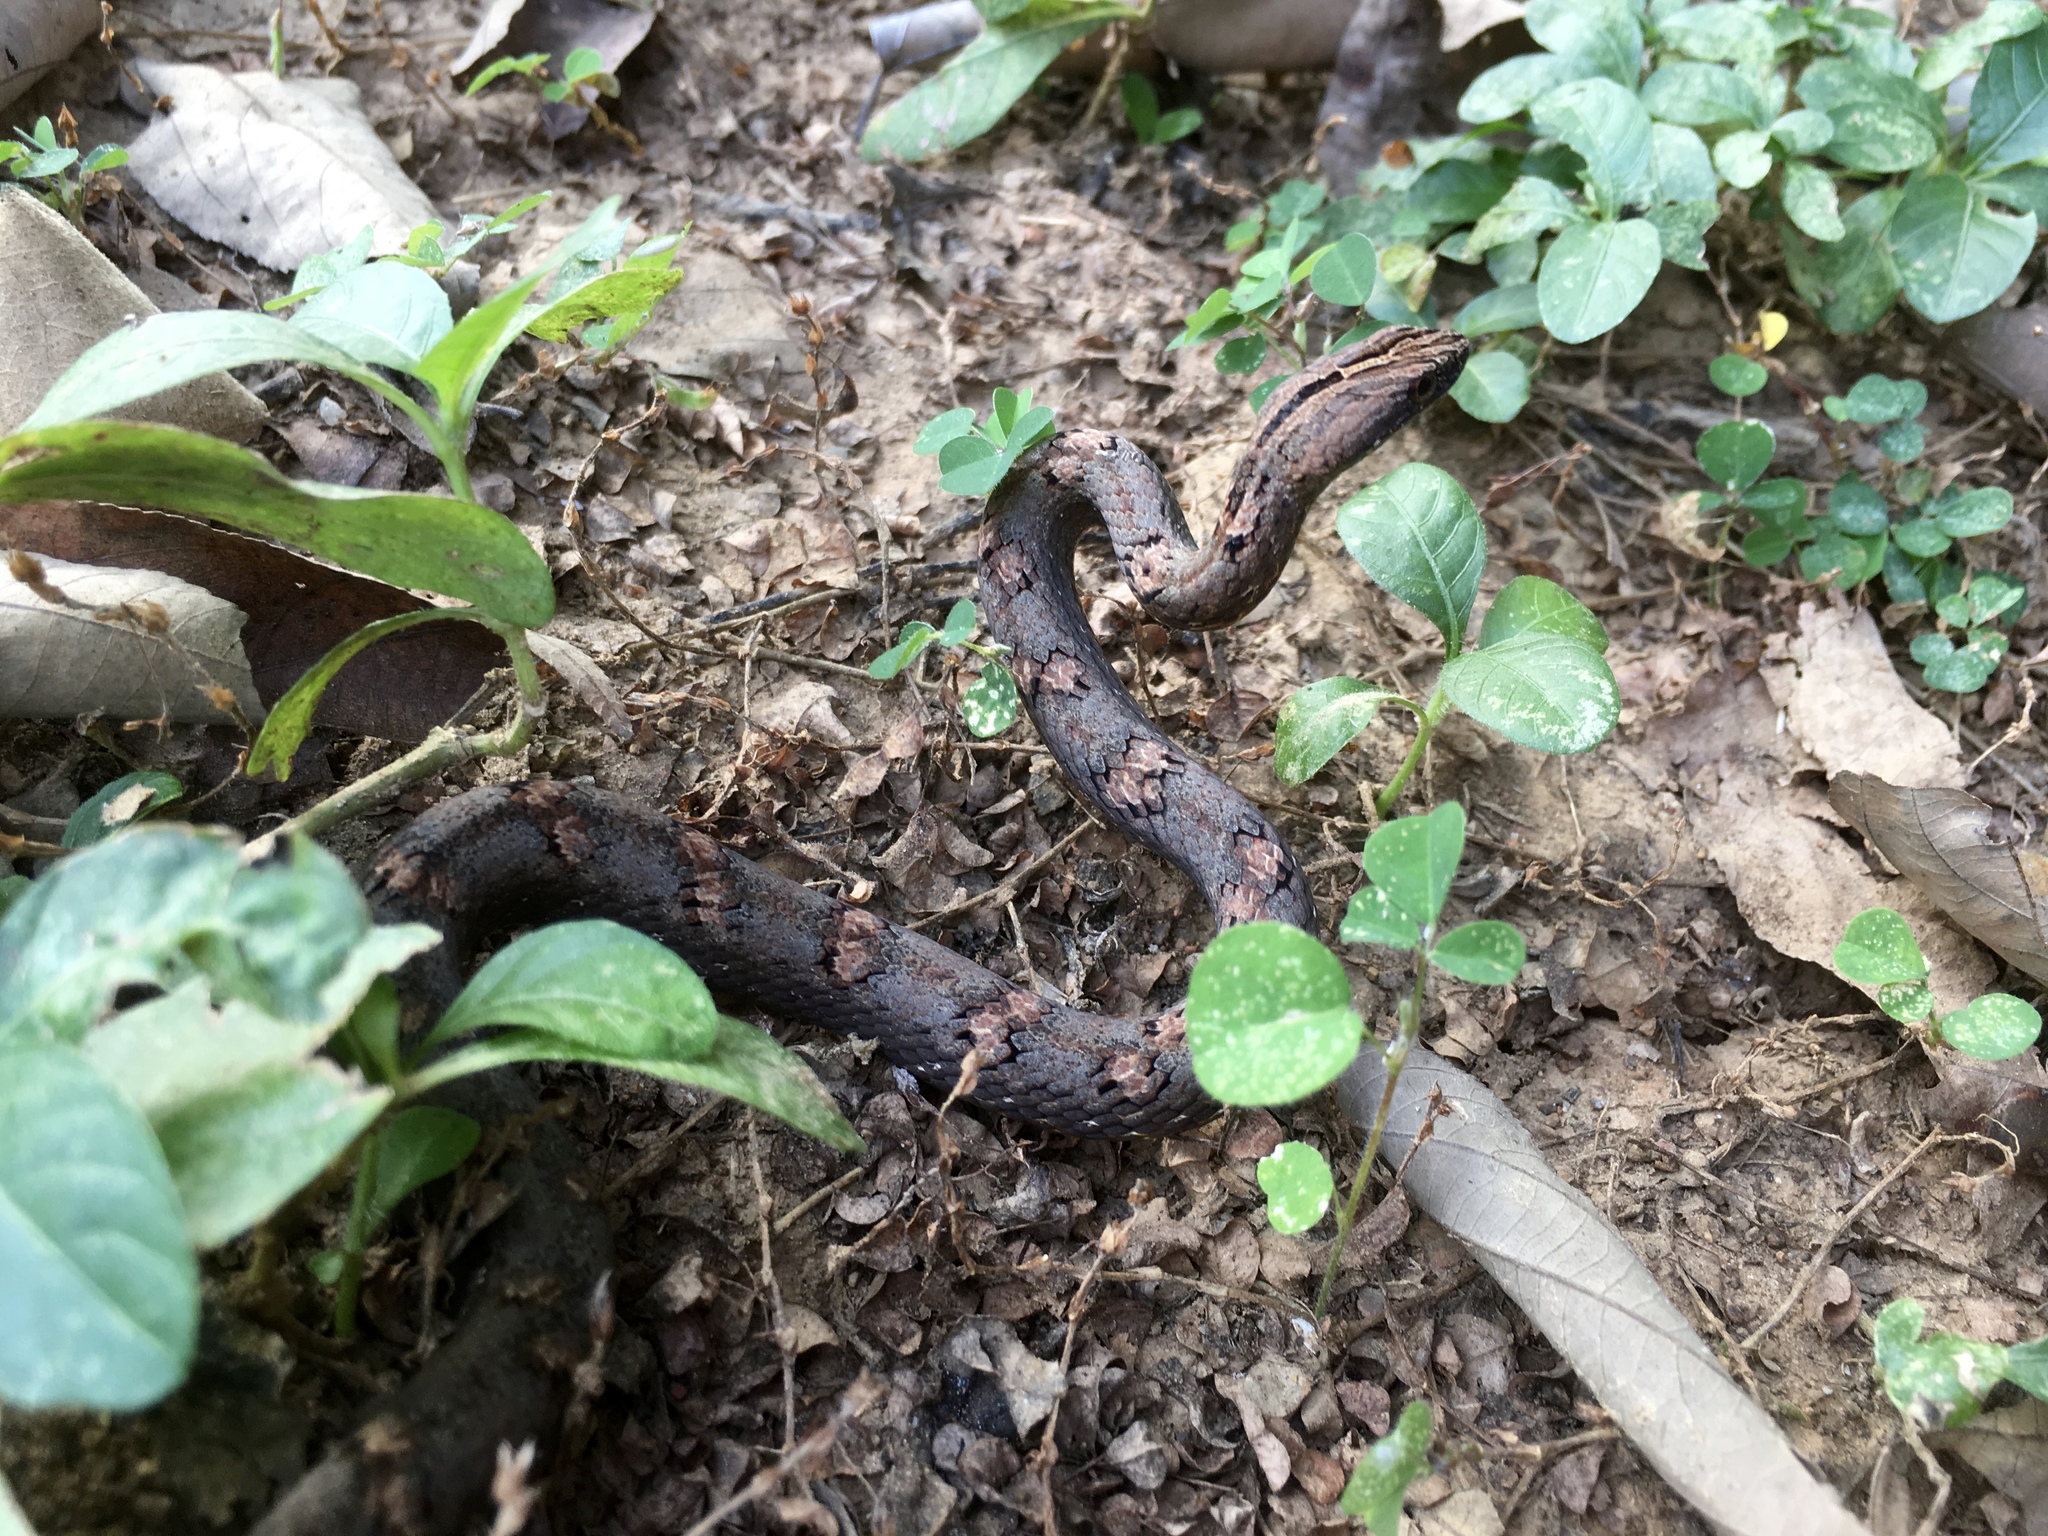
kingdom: Animalia
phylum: Chordata
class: Squamata
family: Pseudaspididae
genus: Psammodynastes
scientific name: Psammodynastes pulverulentus
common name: Common mock viper
